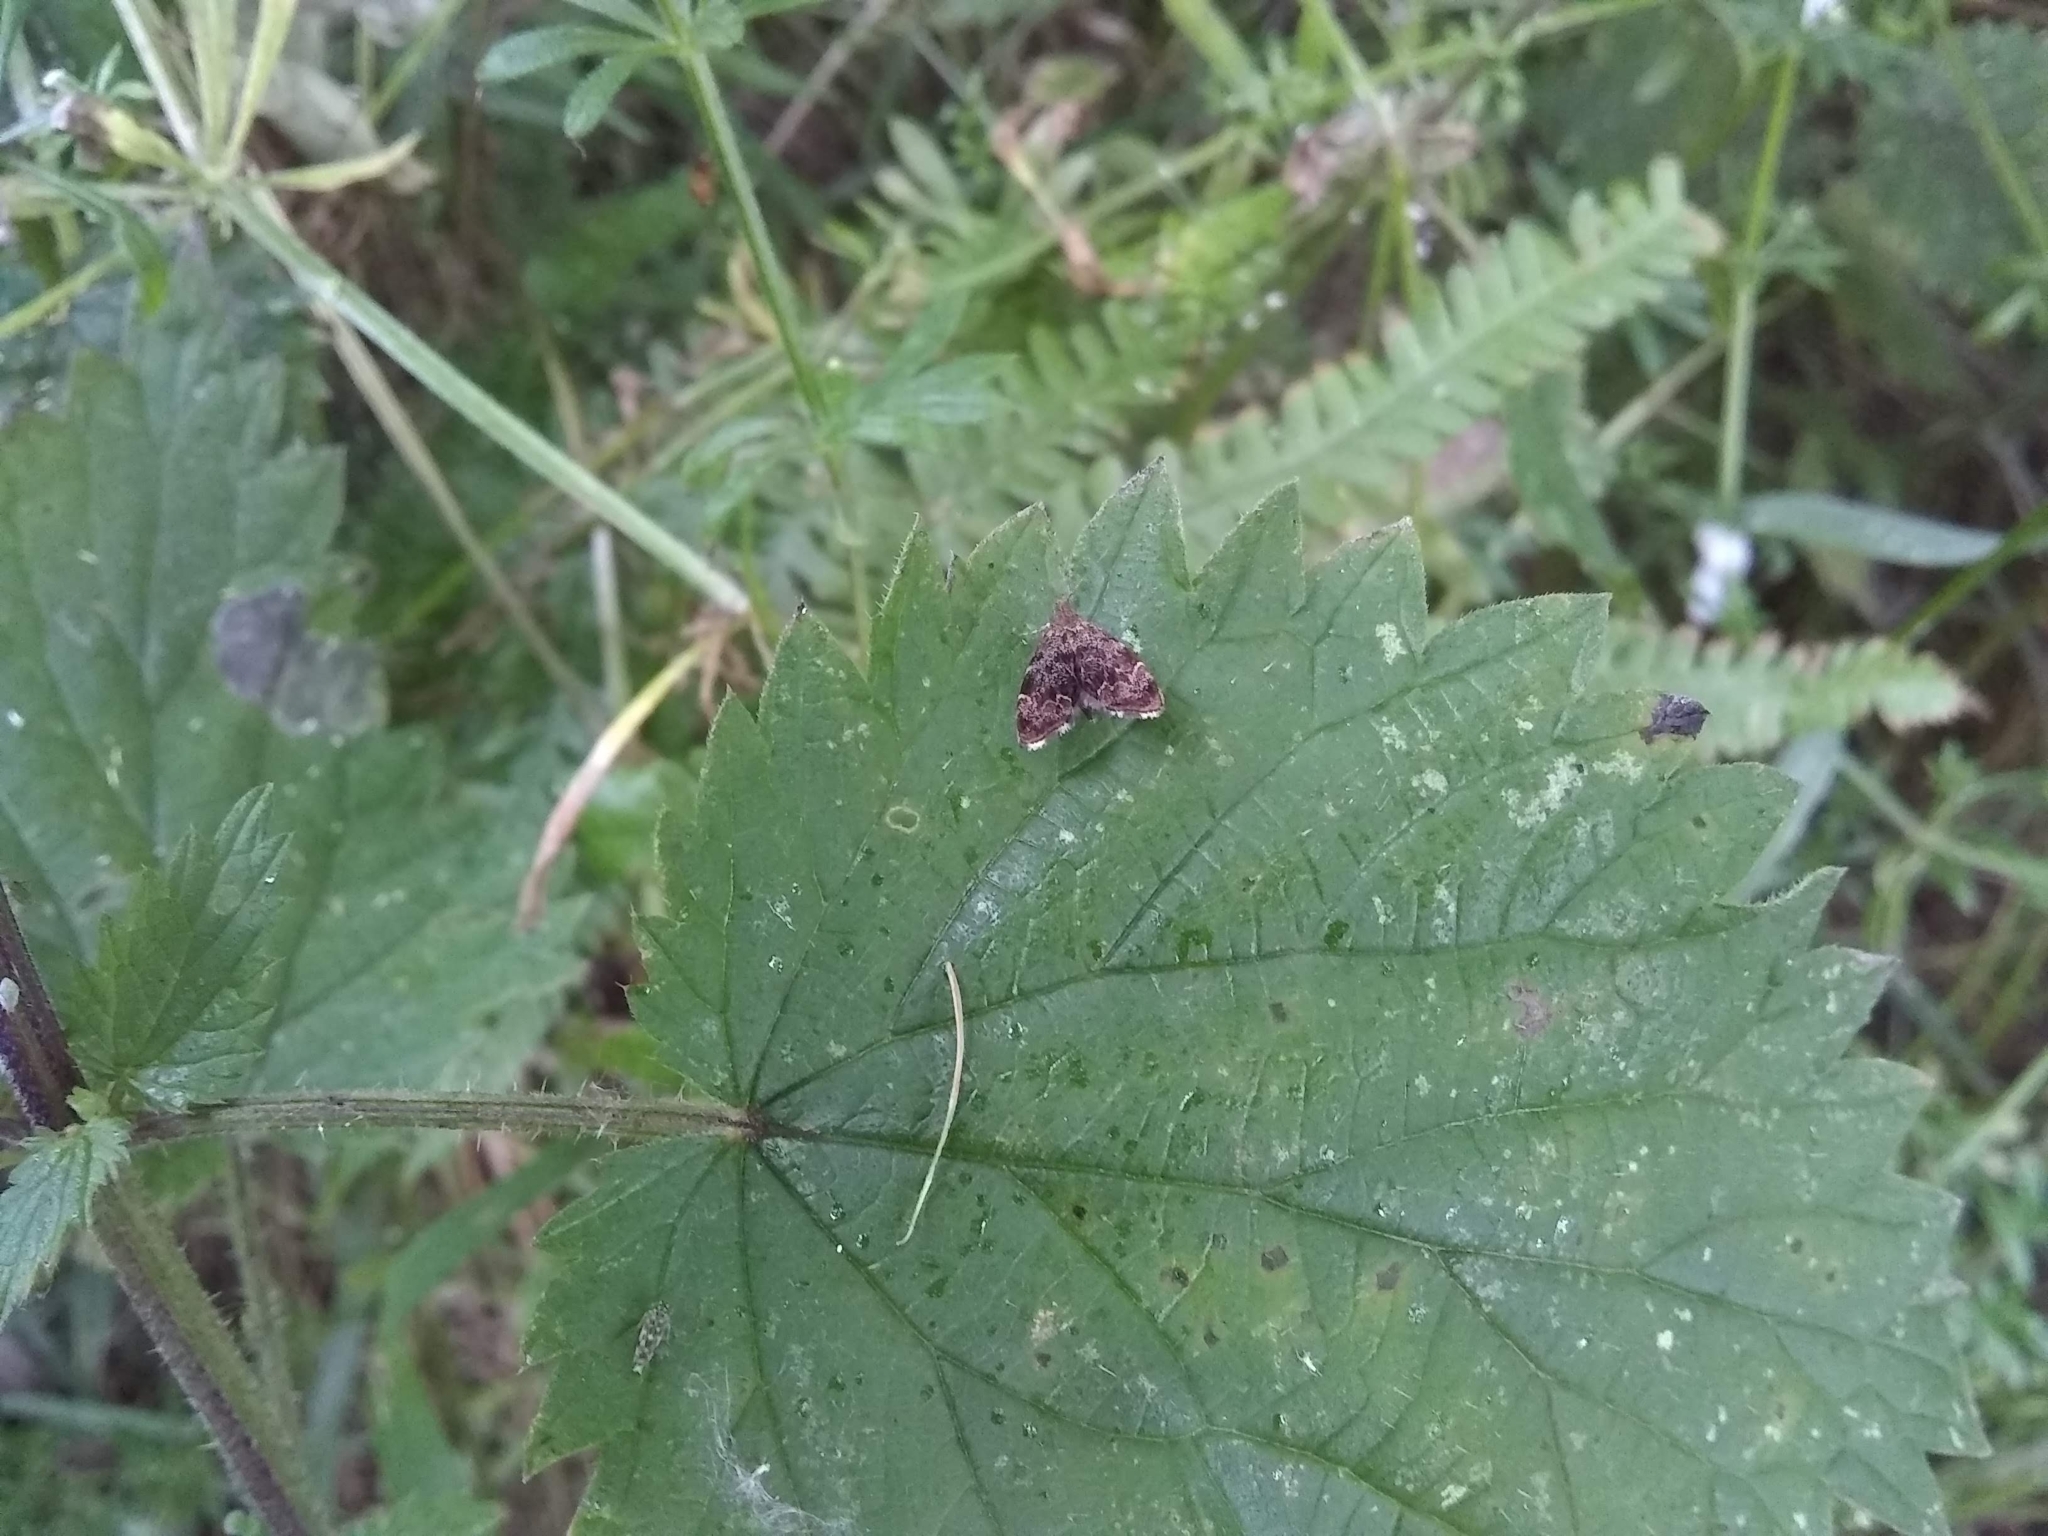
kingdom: Animalia
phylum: Arthropoda
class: Insecta
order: Lepidoptera
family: Choreutidae
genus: Anthophila
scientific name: Anthophila fabriciana
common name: Nettle-tap
